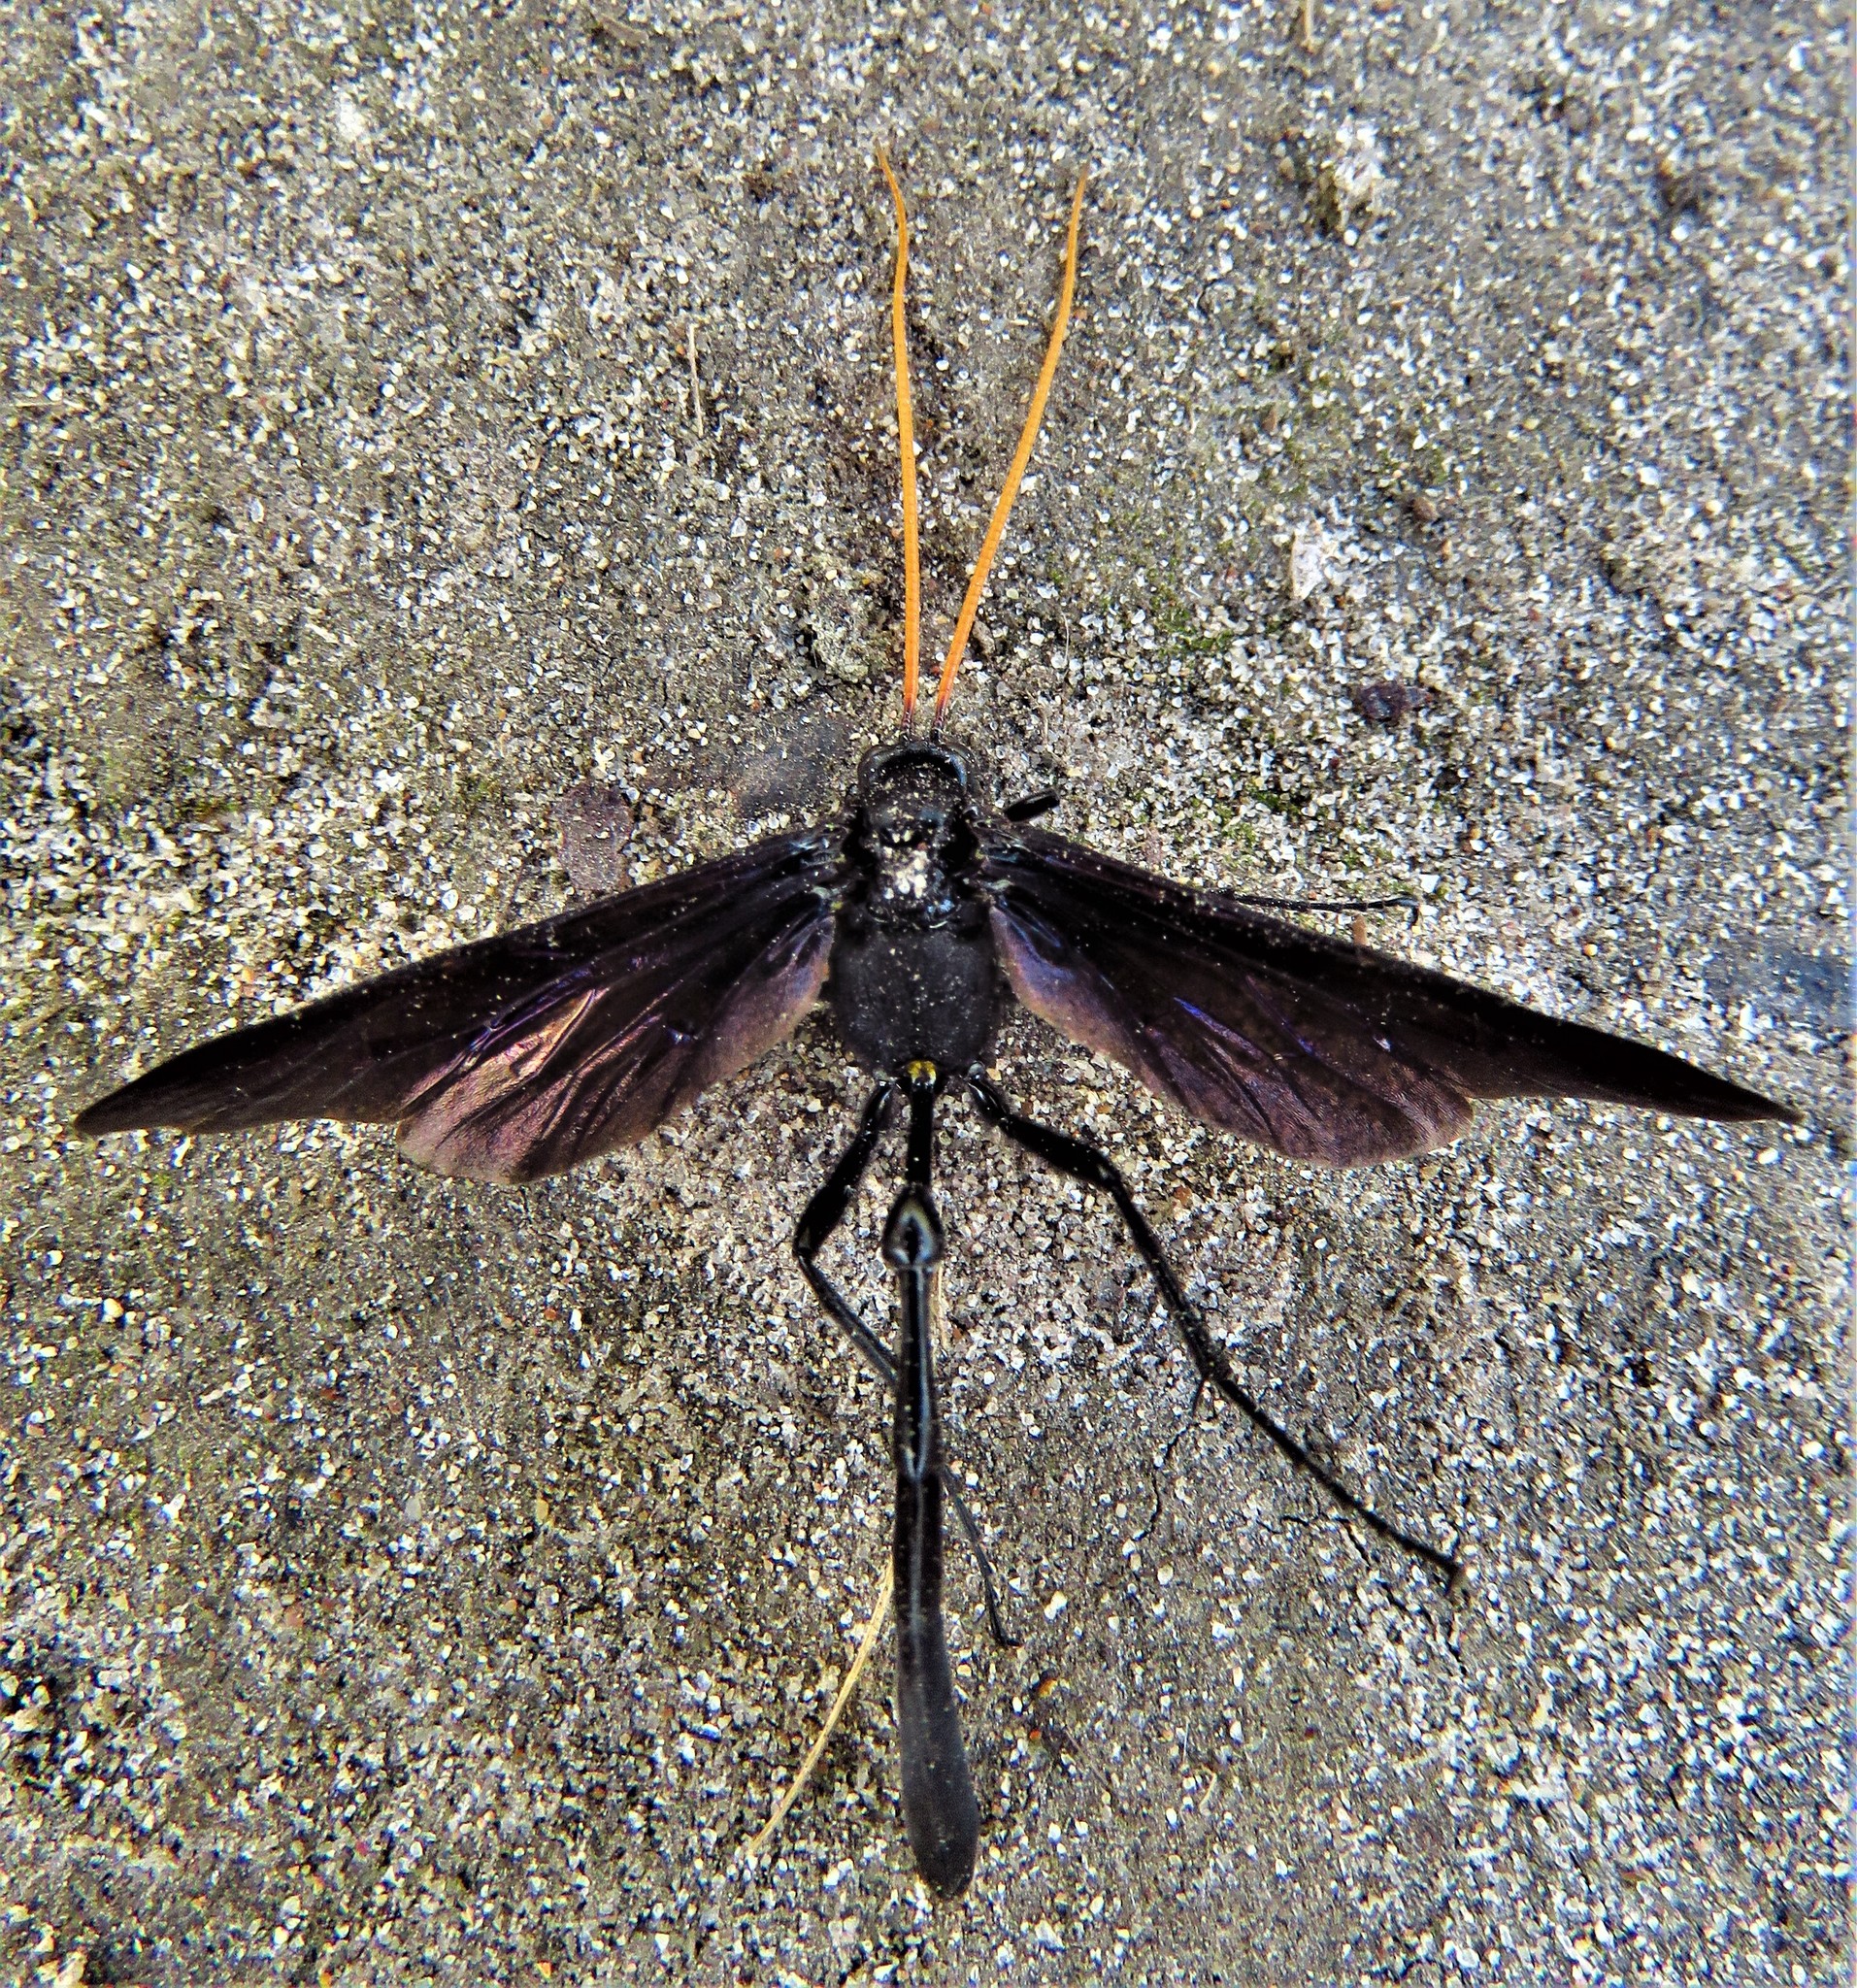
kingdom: Animalia
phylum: Arthropoda
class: Insecta
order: Hymenoptera
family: Ichneumonidae
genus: Thyreodon
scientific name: Thyreodon atricolor
